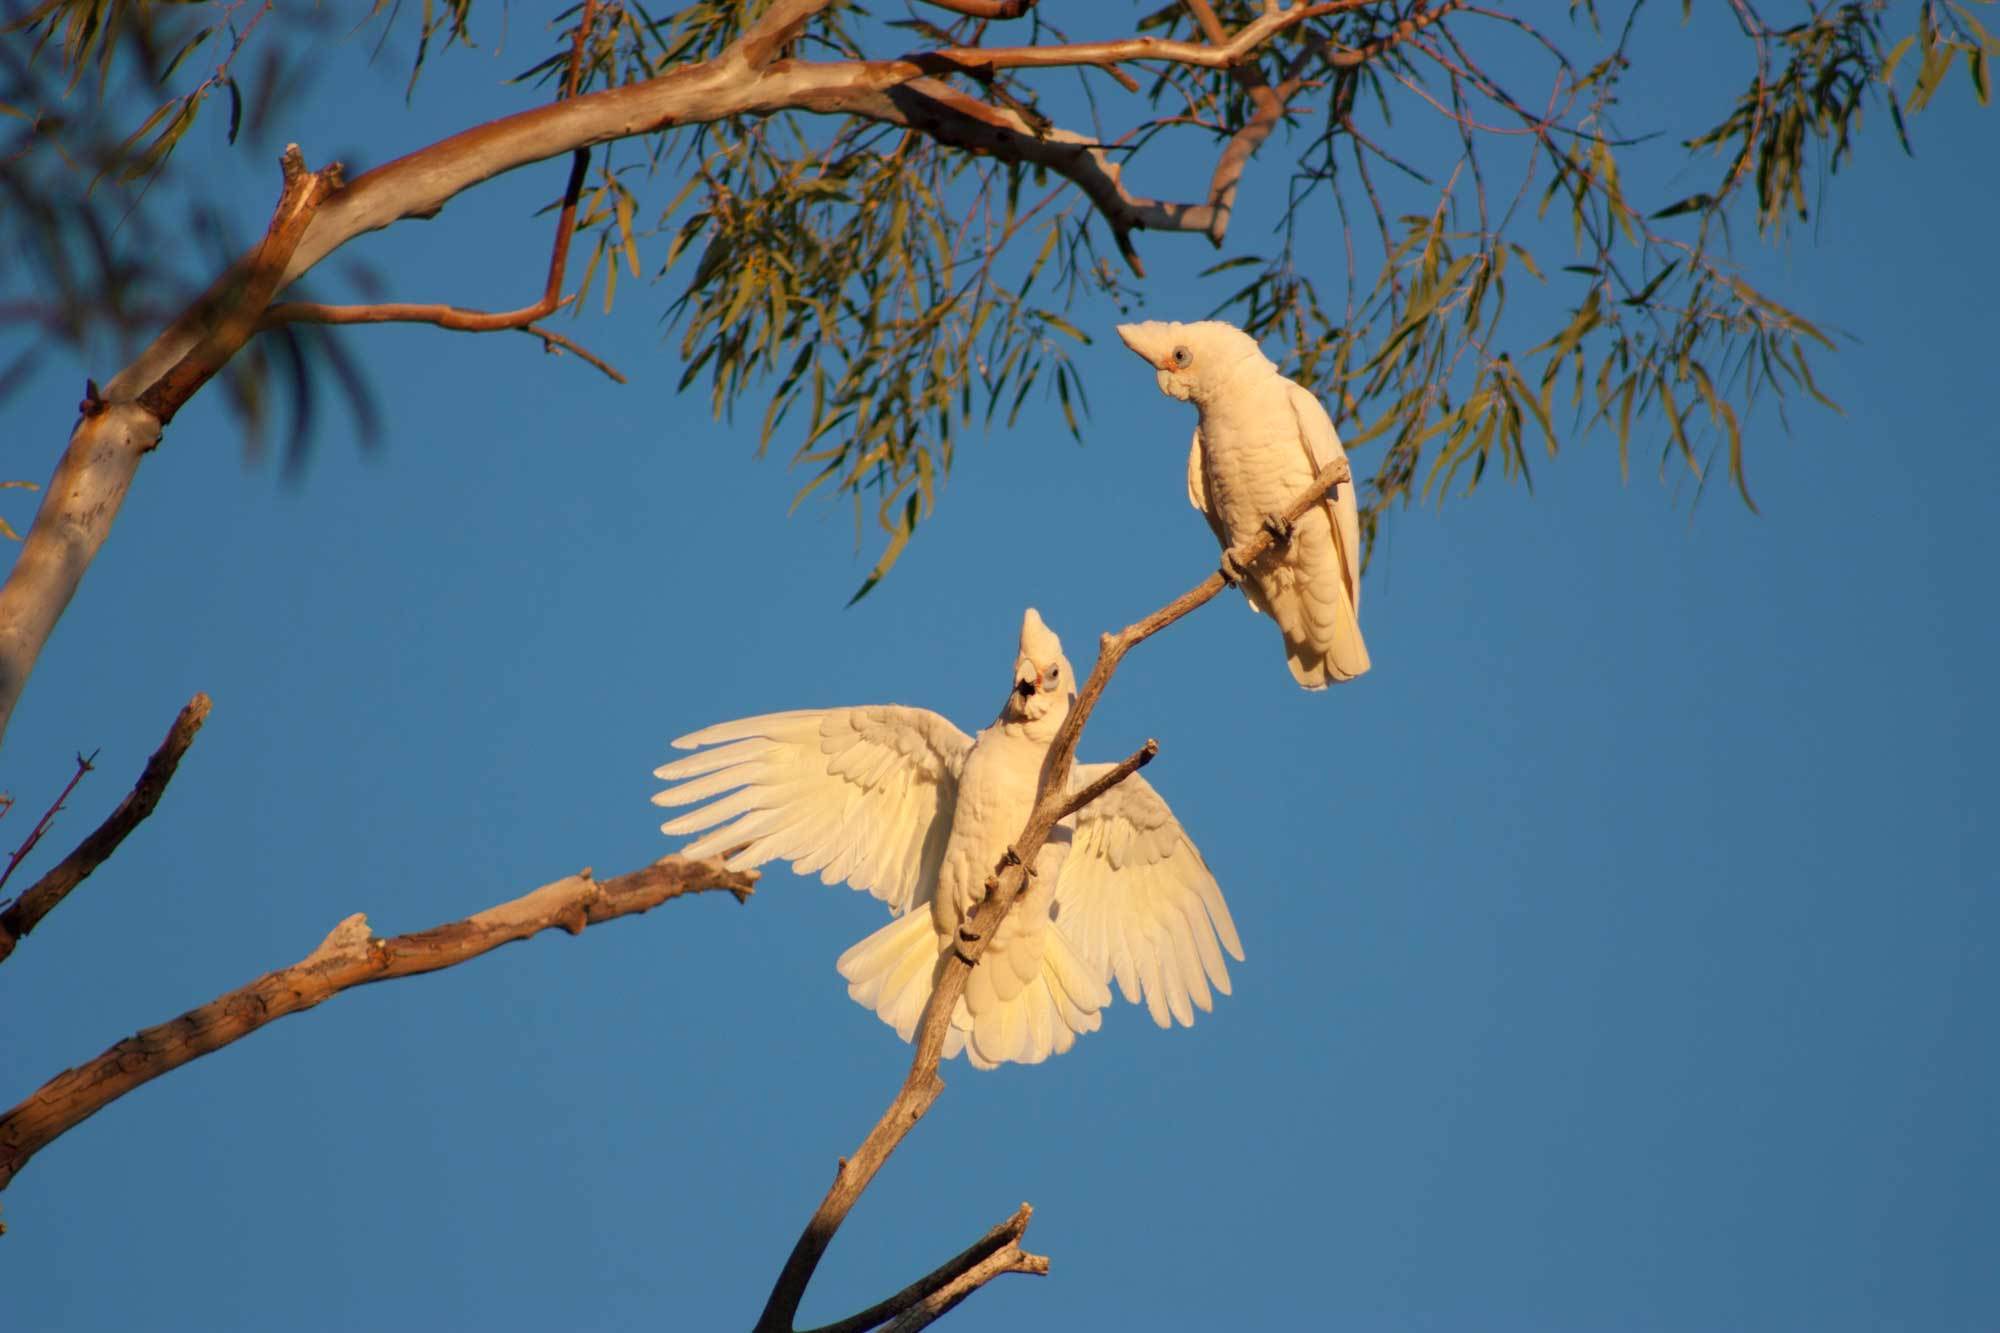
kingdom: Animalia
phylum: Chordata
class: Aves
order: Psittaciformes
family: Psittacidae
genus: Cacatua
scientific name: Cacatua sanguinea
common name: Little corella
